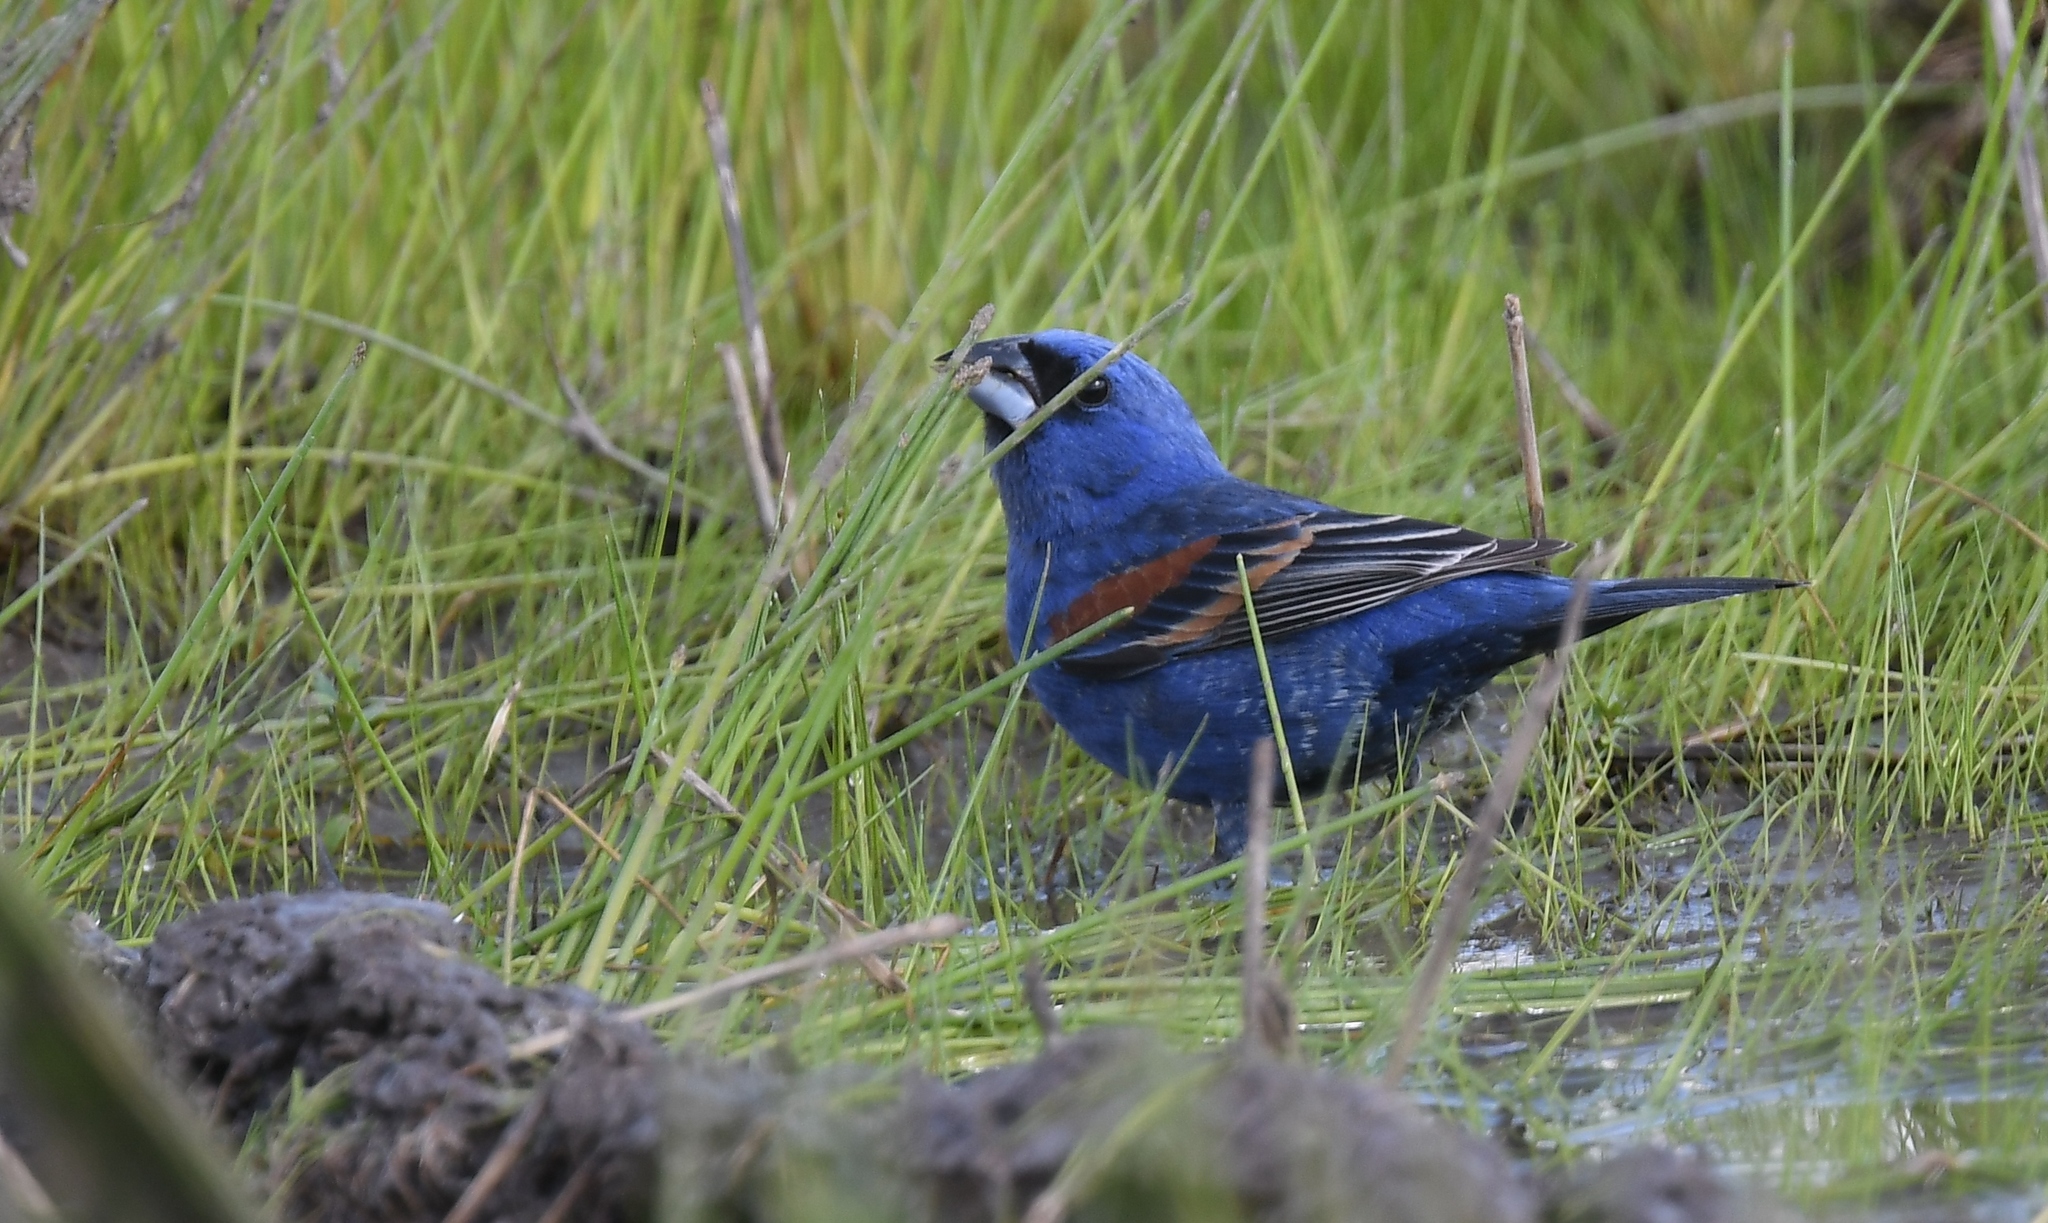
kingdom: Animalia
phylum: Chordata
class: Aves
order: Passeriformes
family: Cardinalidae
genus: Passerina
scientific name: Passerina caerulea
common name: Blue grosbeak
